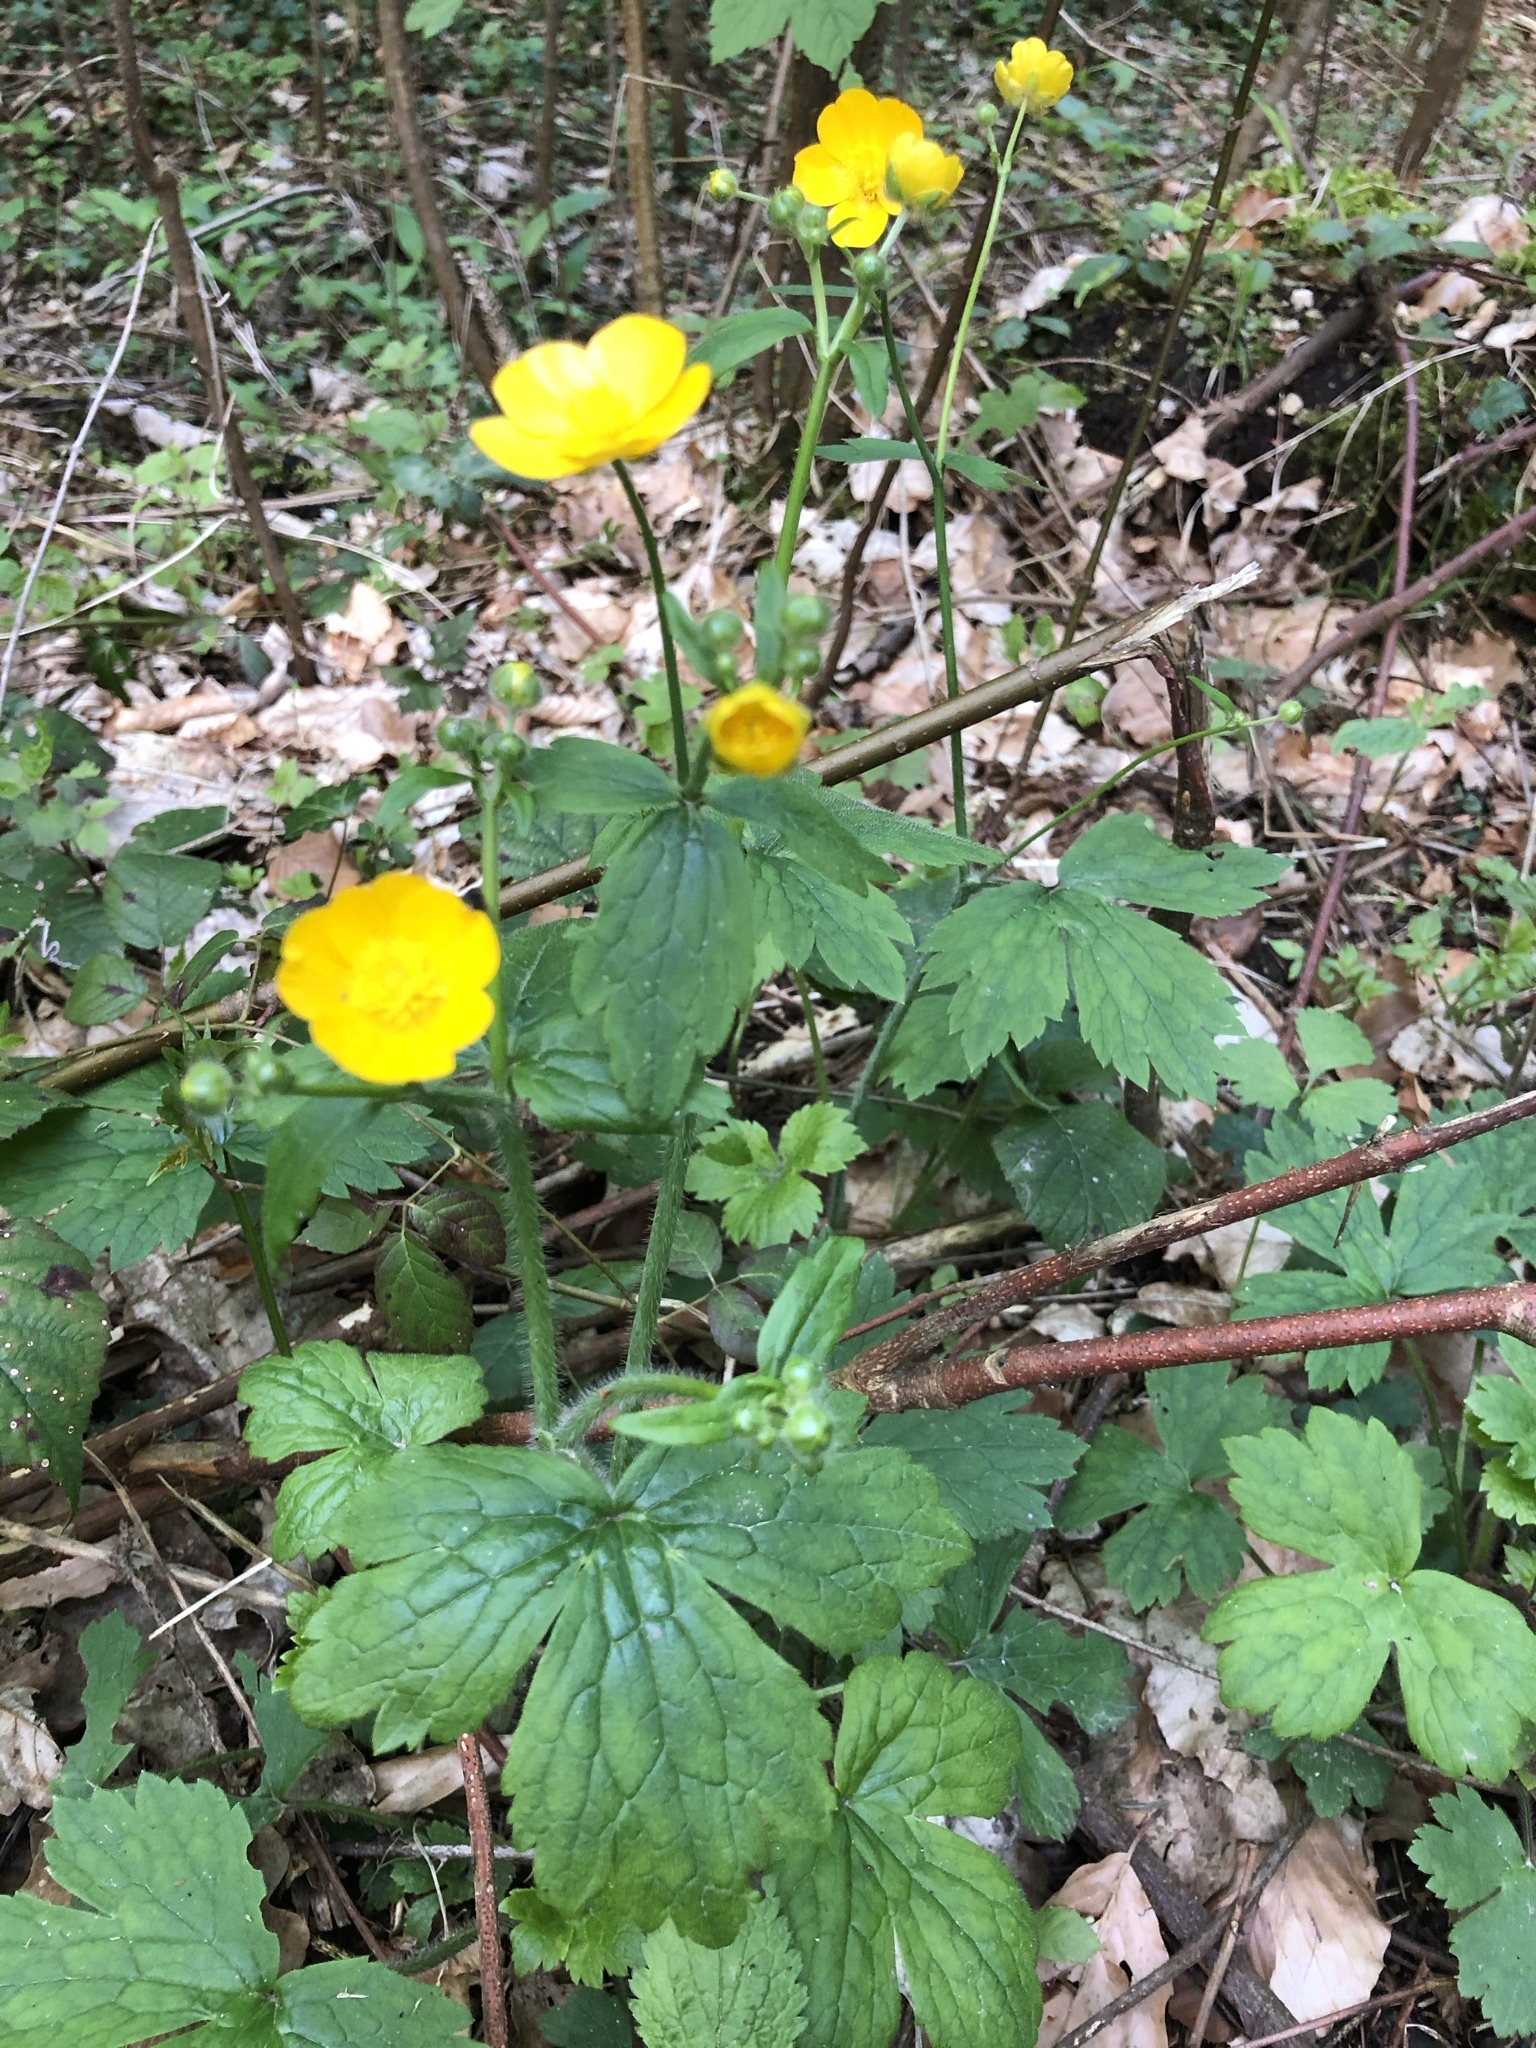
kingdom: Plantae
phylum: Tracheophyta
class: Magnoliopsida
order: Ranunculales
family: Ranunculaceae
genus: Ranunculus
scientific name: Ranunculus lanuginosus
